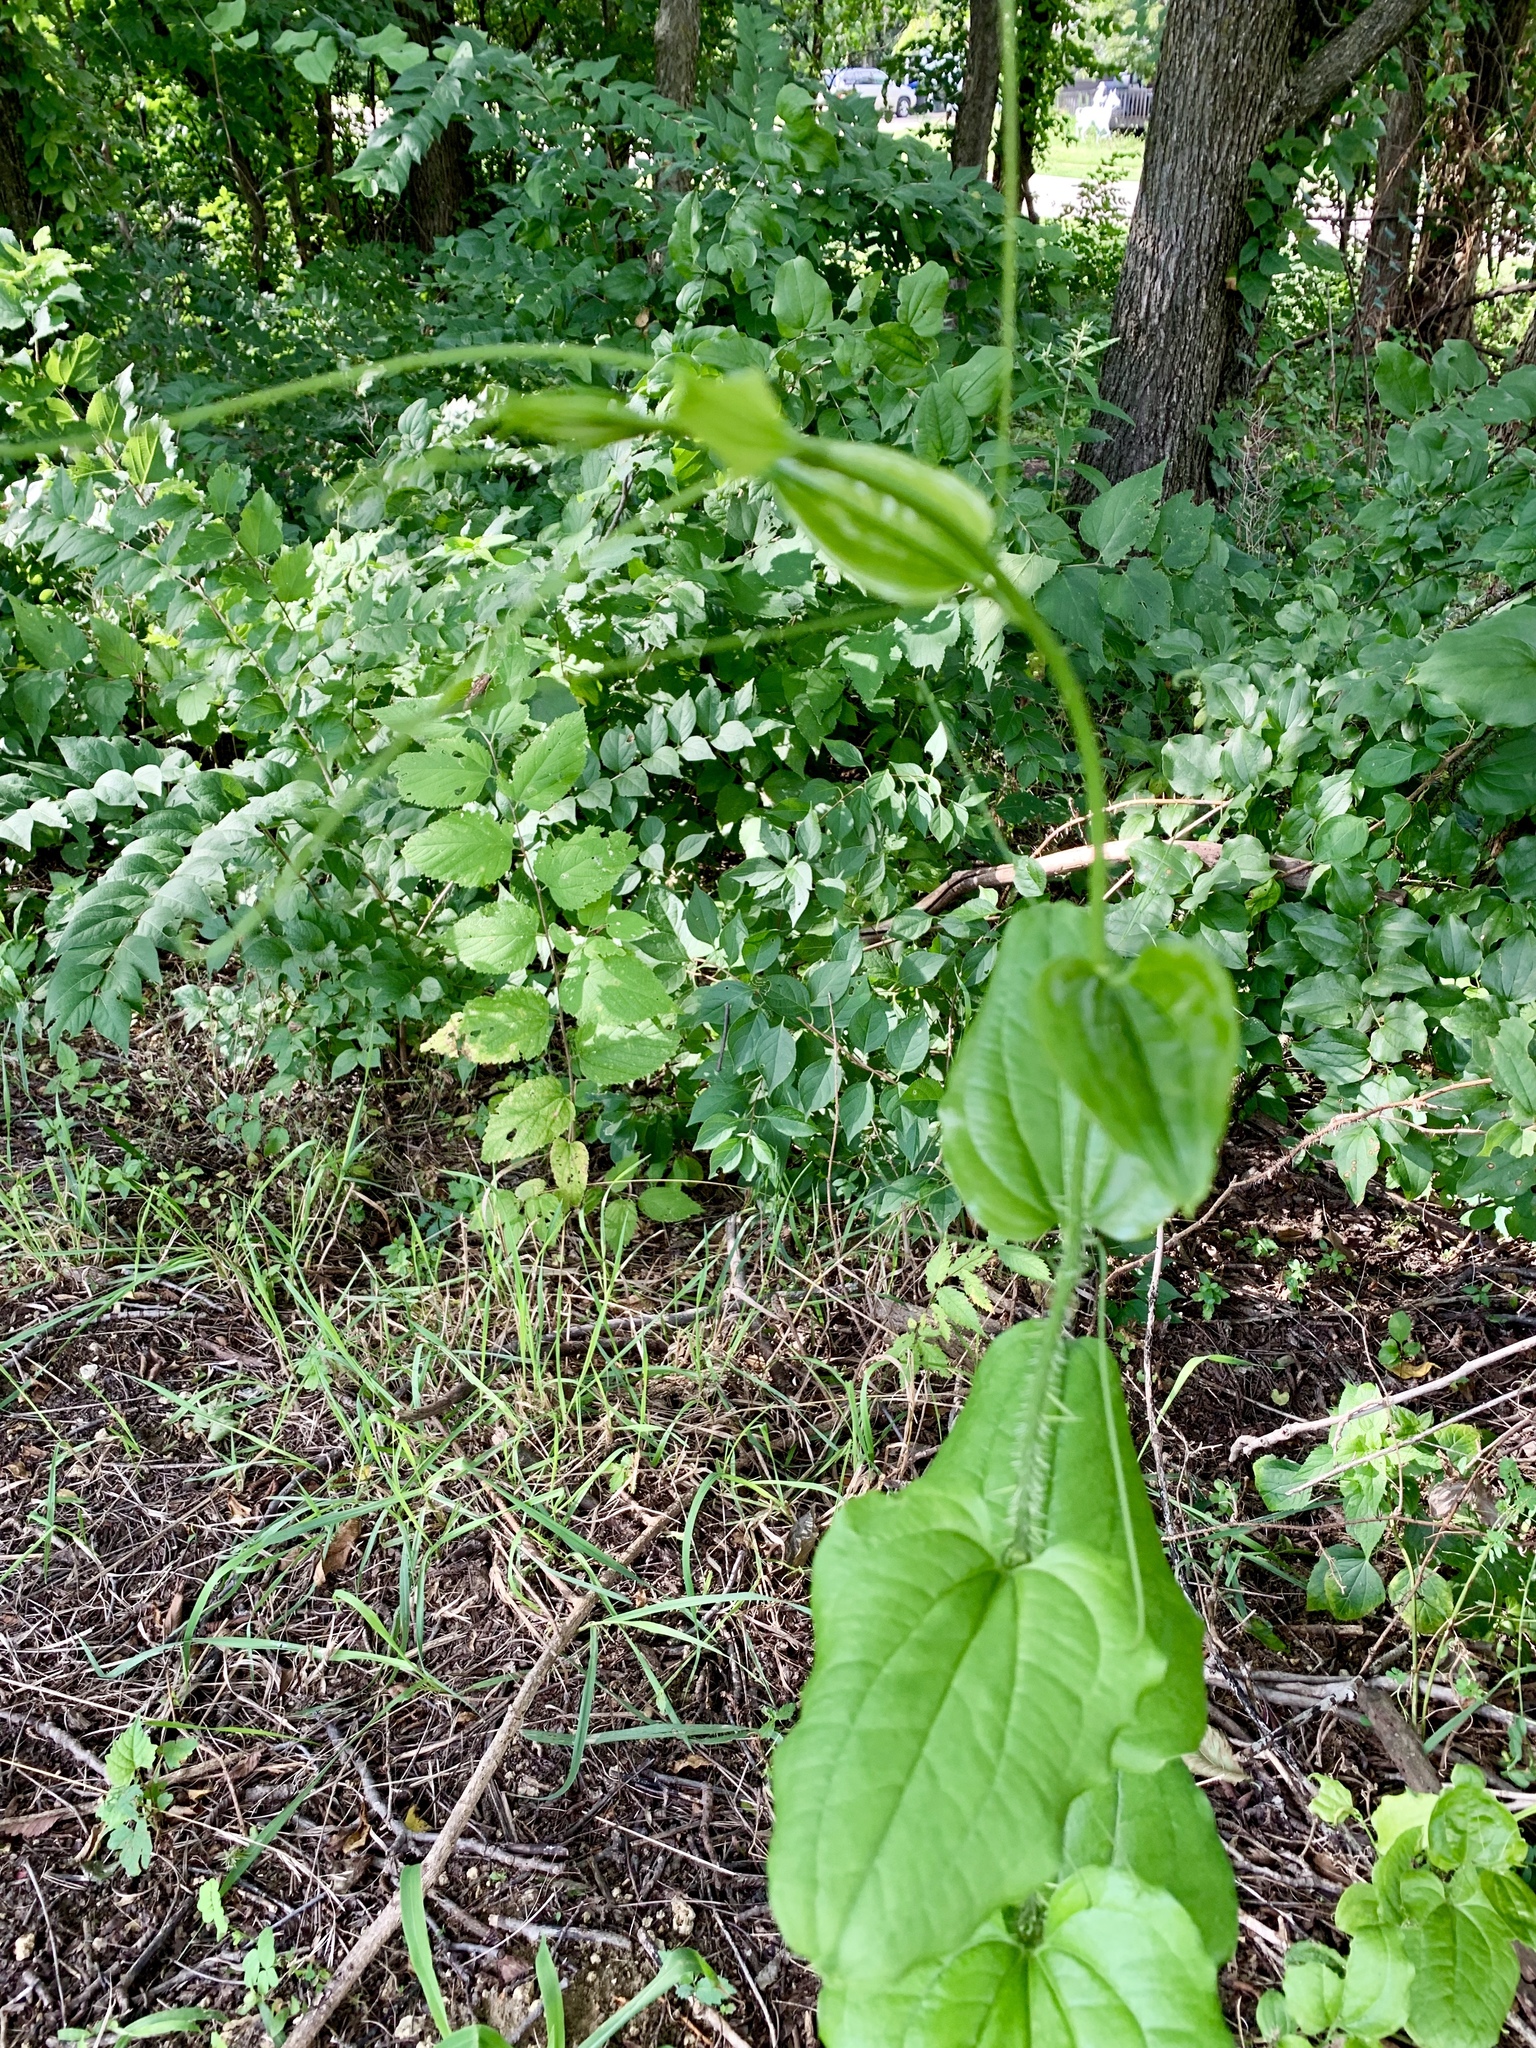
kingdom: Plantae
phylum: Tracheophyta
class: Liliopsida
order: Liliales
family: Smilacaceae
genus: Smilax
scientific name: Smilax tamnoides
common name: Hellfetter
